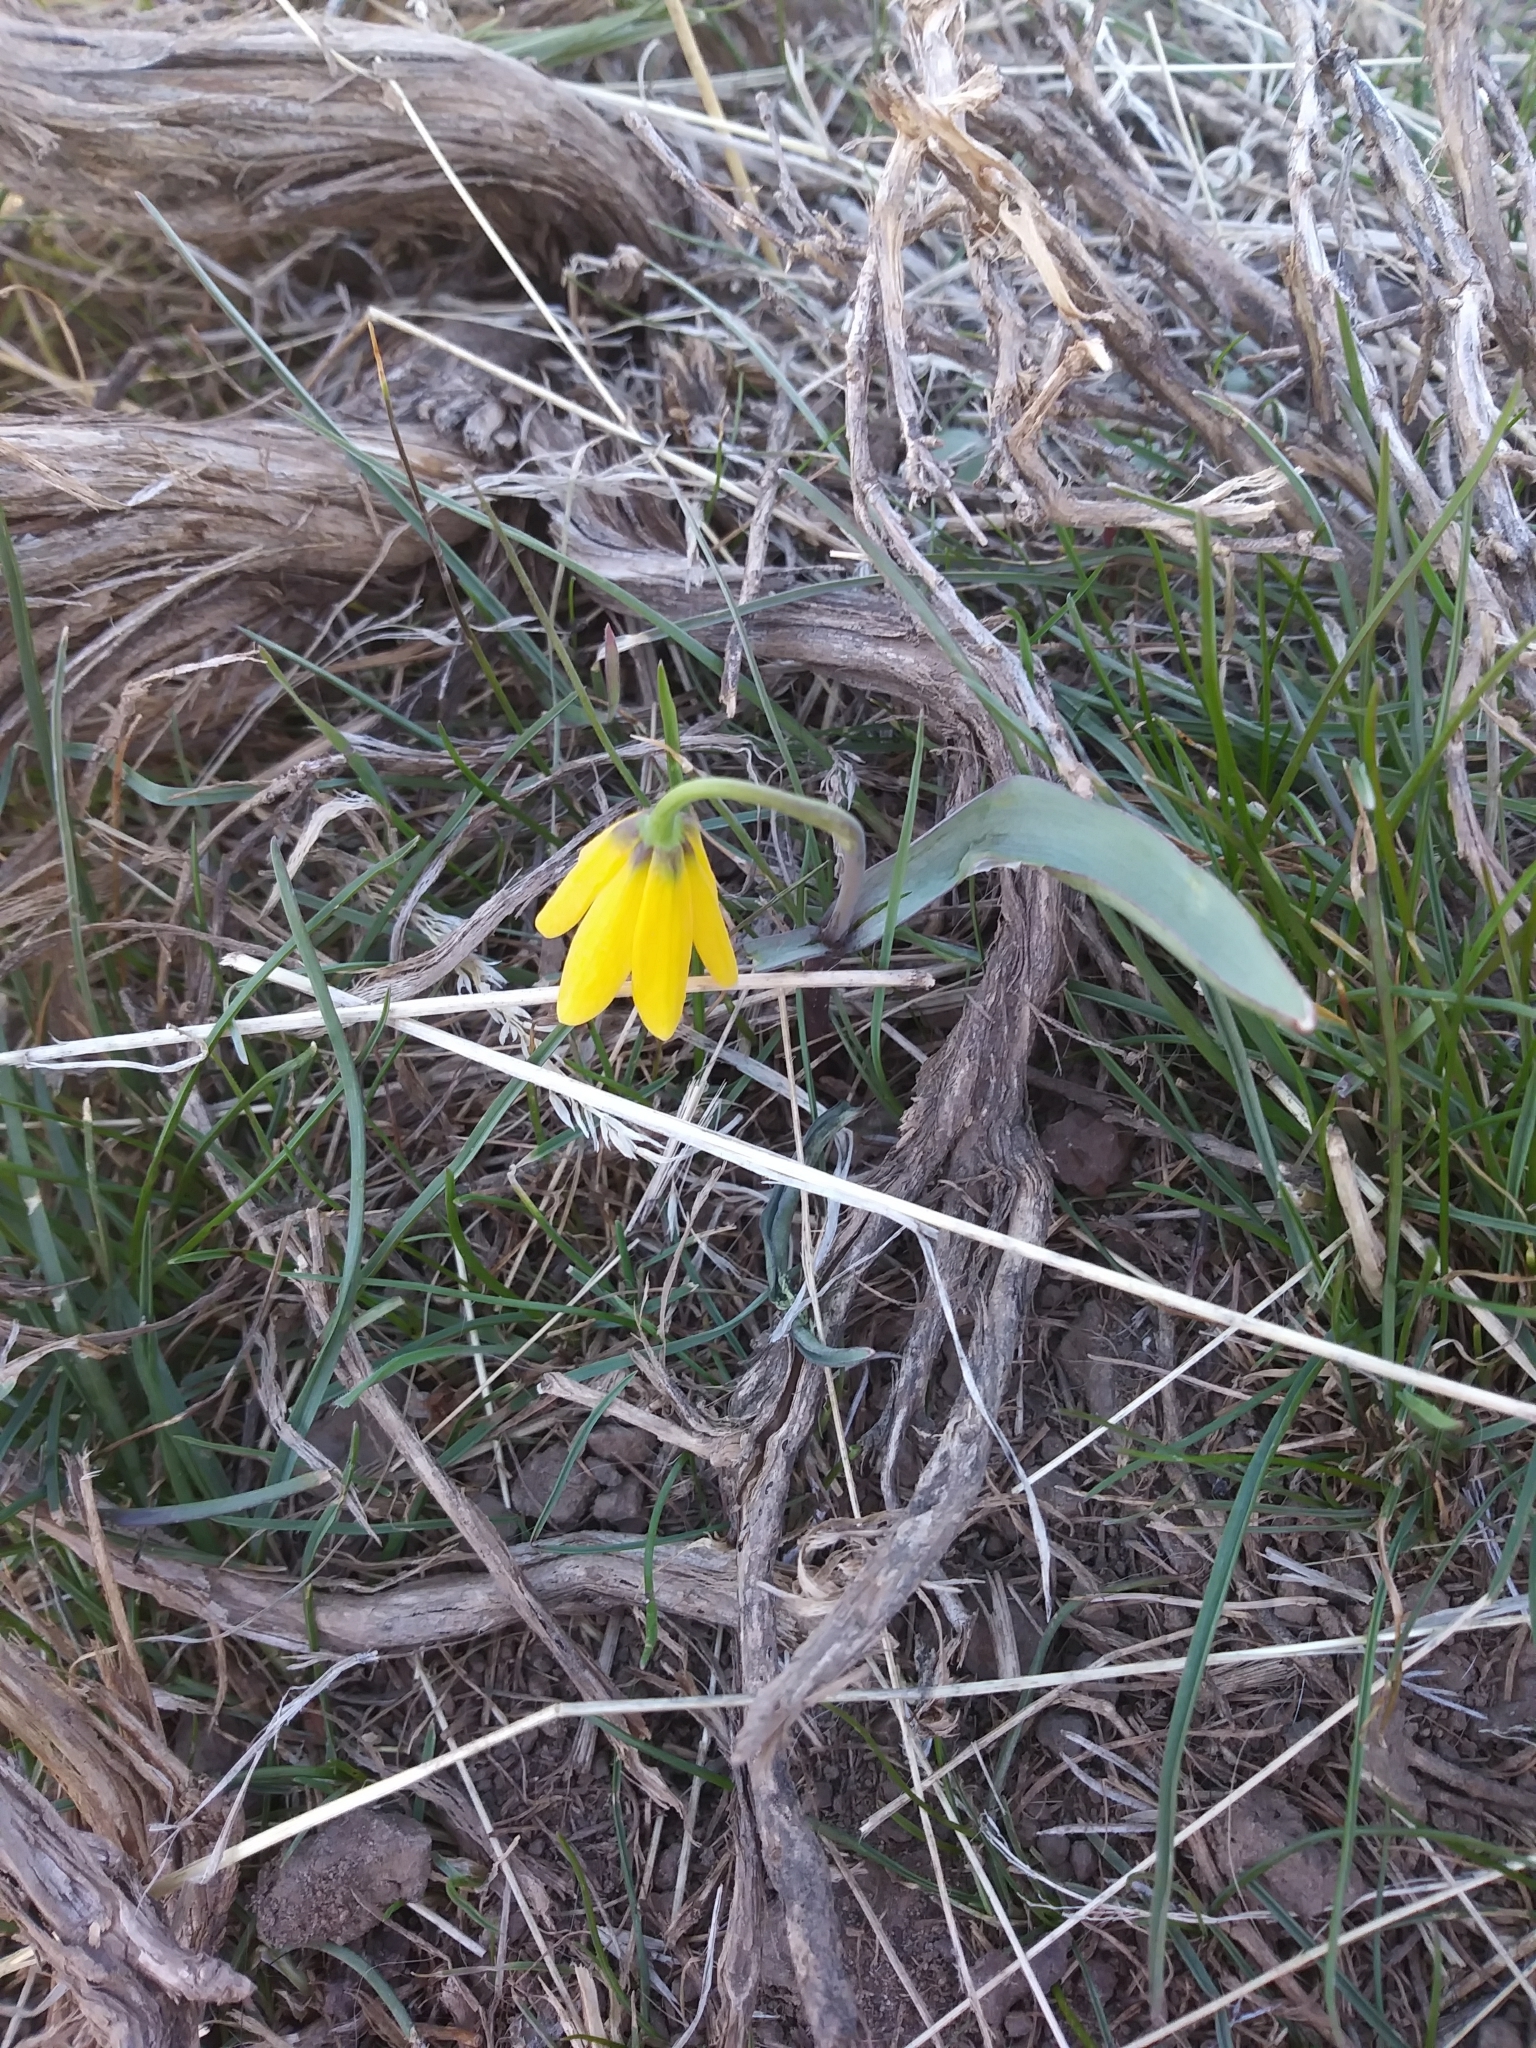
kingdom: Plantae
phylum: Tracheophyta
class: Liliopsida
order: Liliales
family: Liliaceae
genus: Fritillaria
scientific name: Fritillaria pudica
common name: Yellow fritillary
